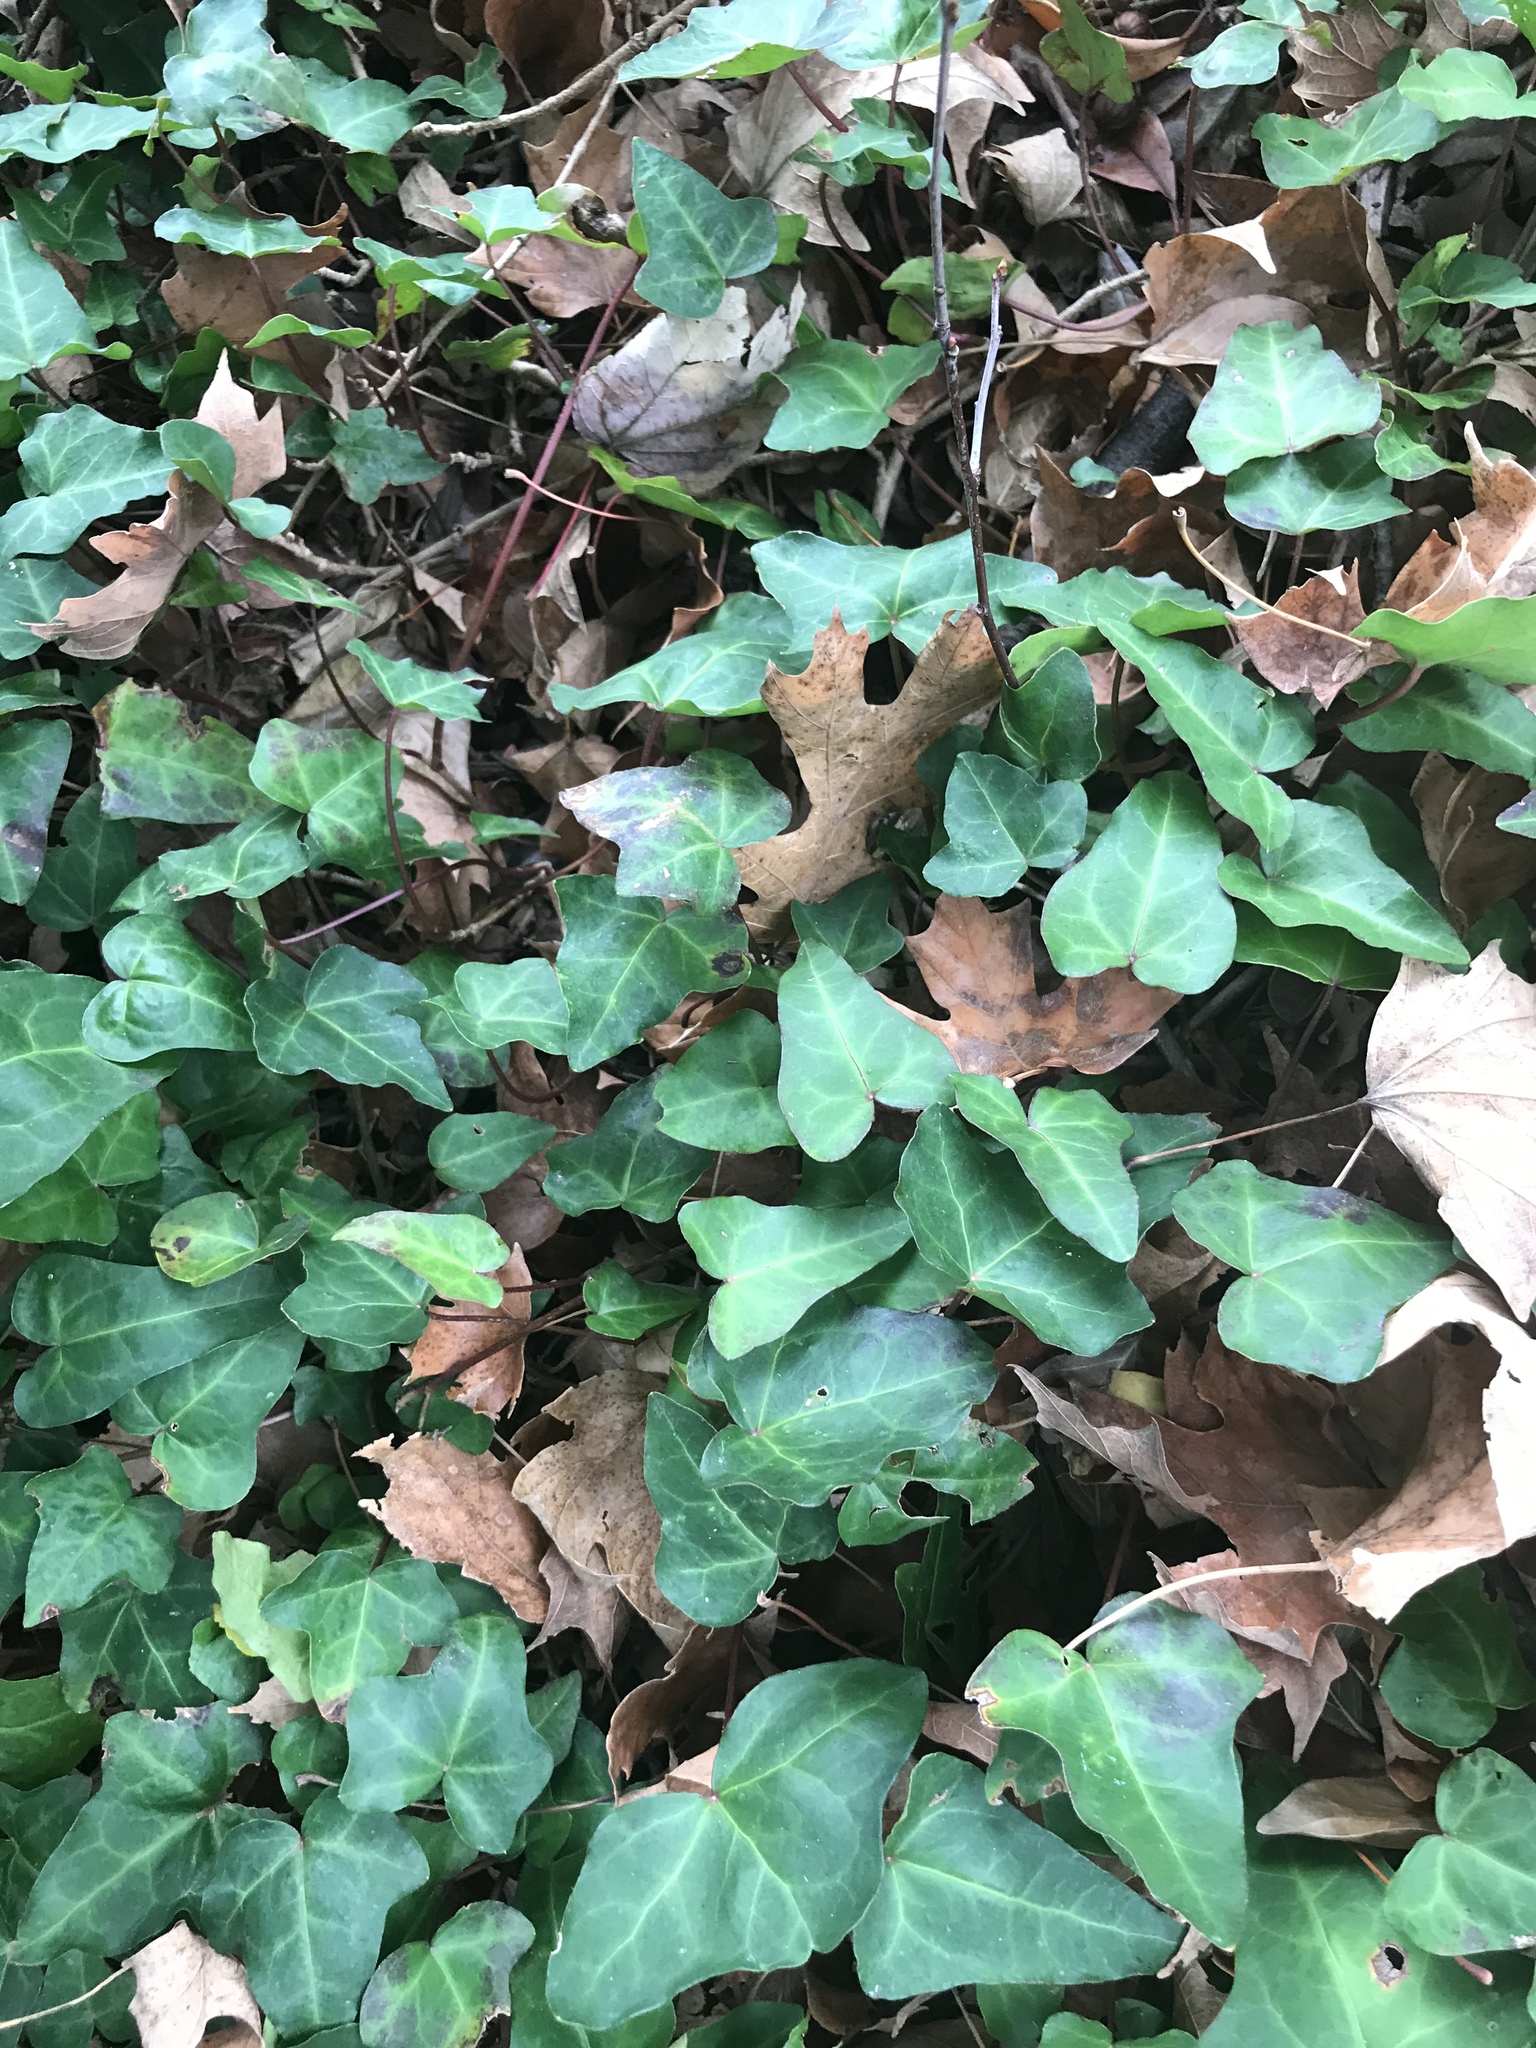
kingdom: Plantae
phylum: Tracheophyta
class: Magnoliopsida
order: Apiales
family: Araliaceae
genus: Hedera
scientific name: Hedera helix
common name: Ivy
